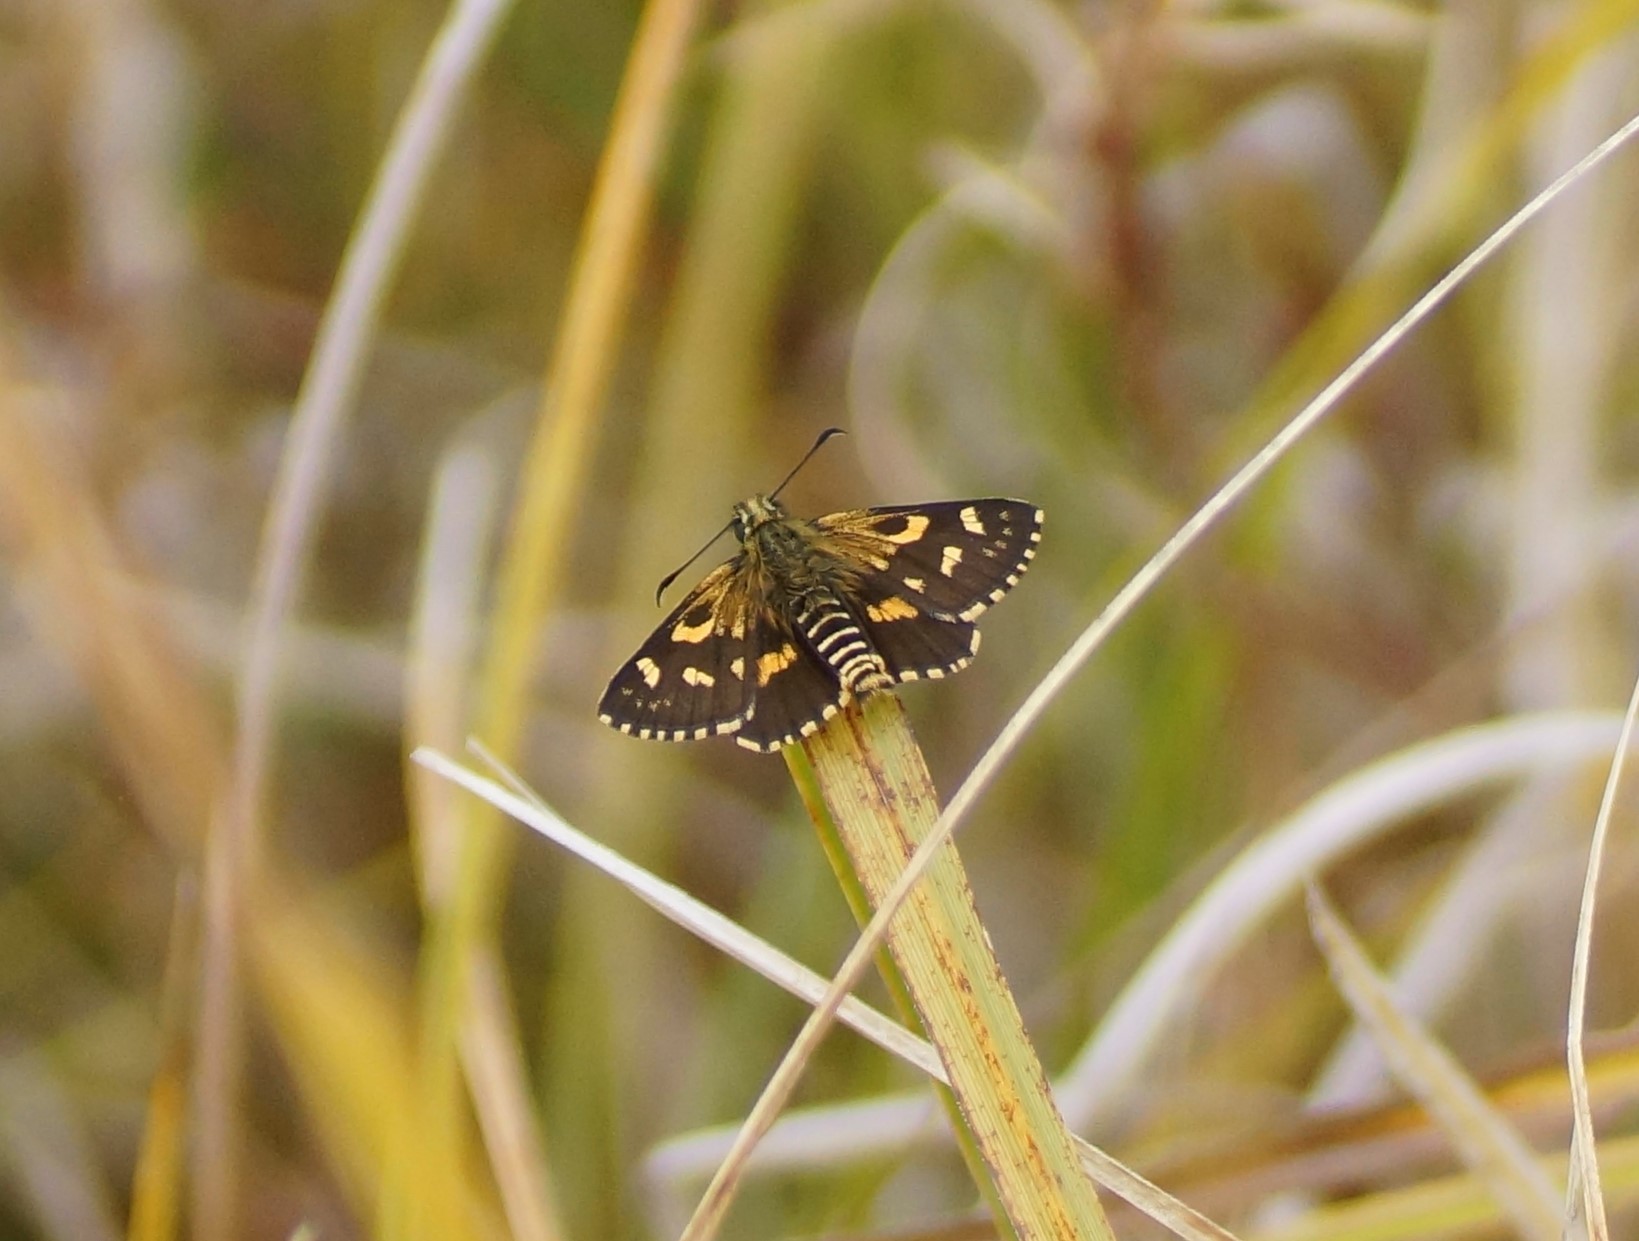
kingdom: Animalia
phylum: Arthropoda
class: Insecta
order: Lepidoptera
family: Hesperiidae
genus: Oreisplanus
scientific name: Oreisplanus munionga
